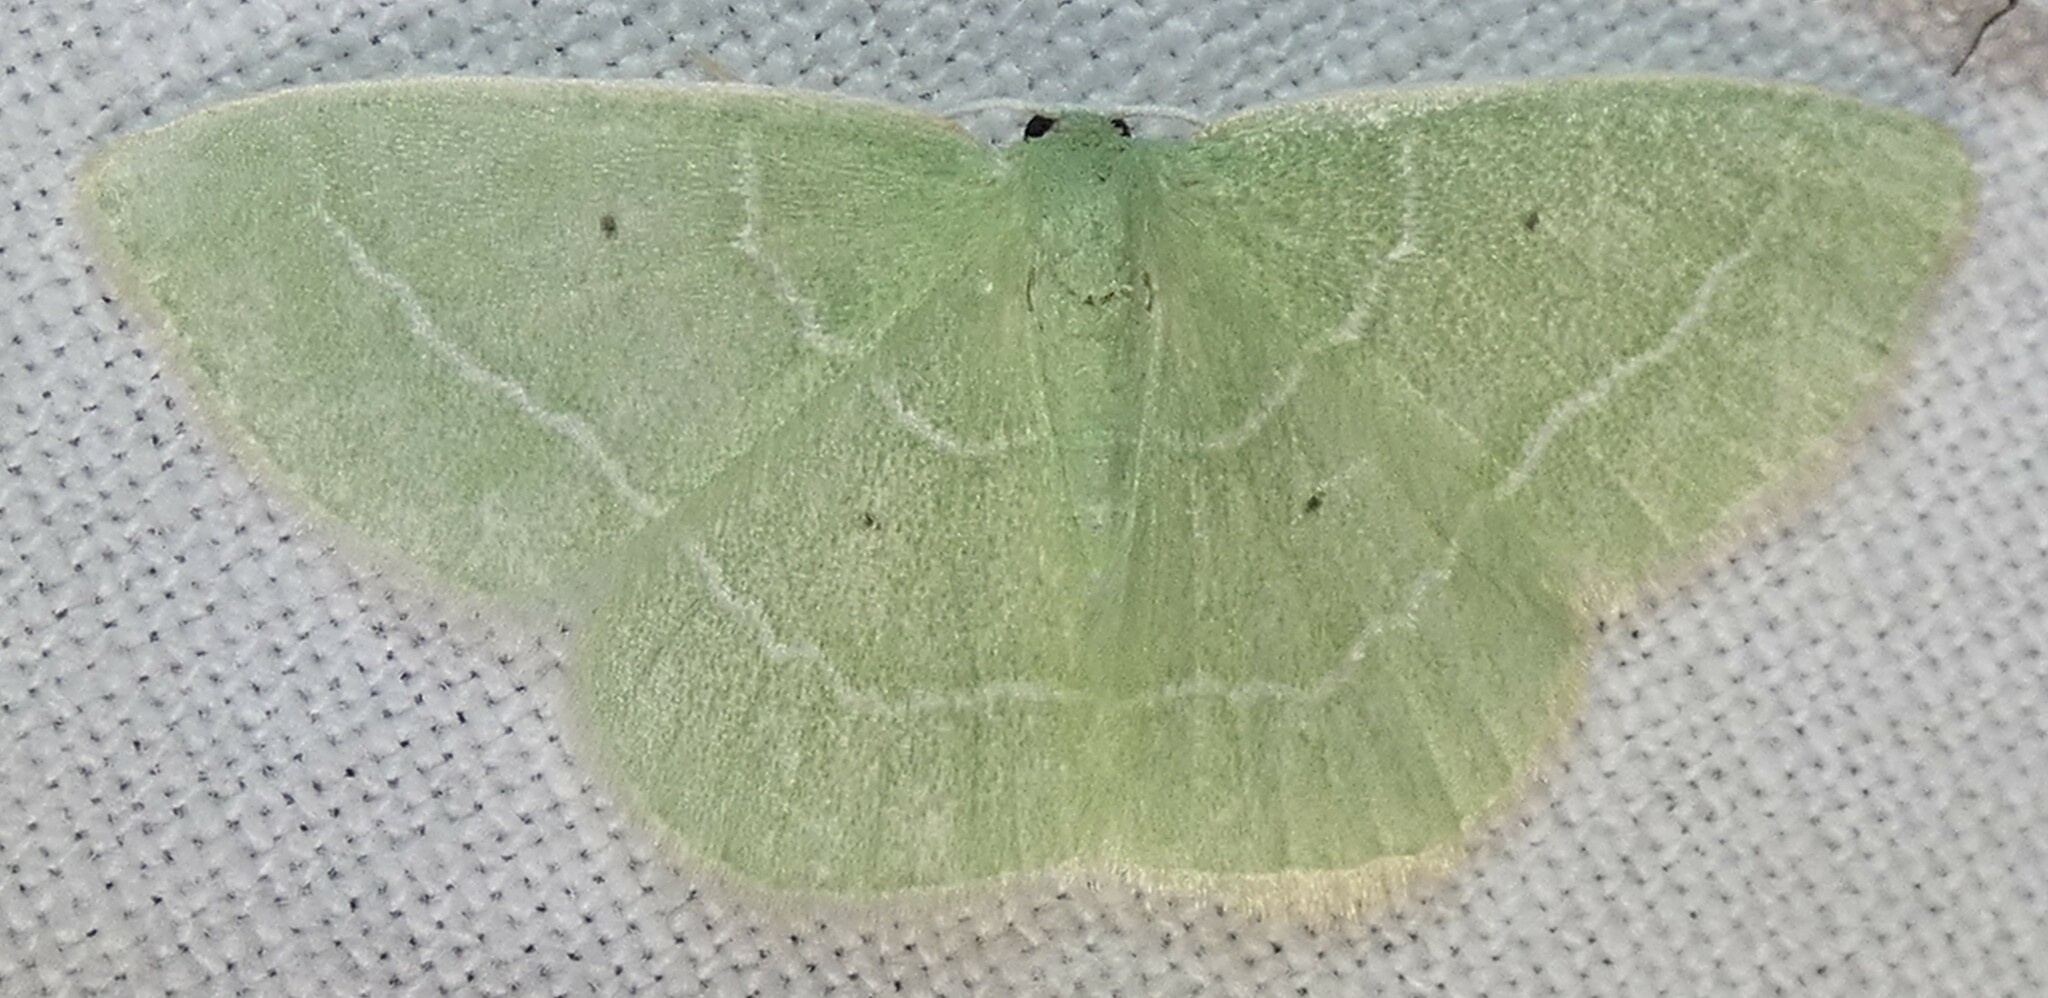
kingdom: Animalia
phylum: Arthropoda
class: Insecta
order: Lepidoptera
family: Geometridae
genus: Nemoria
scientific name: Nemoria elfa
